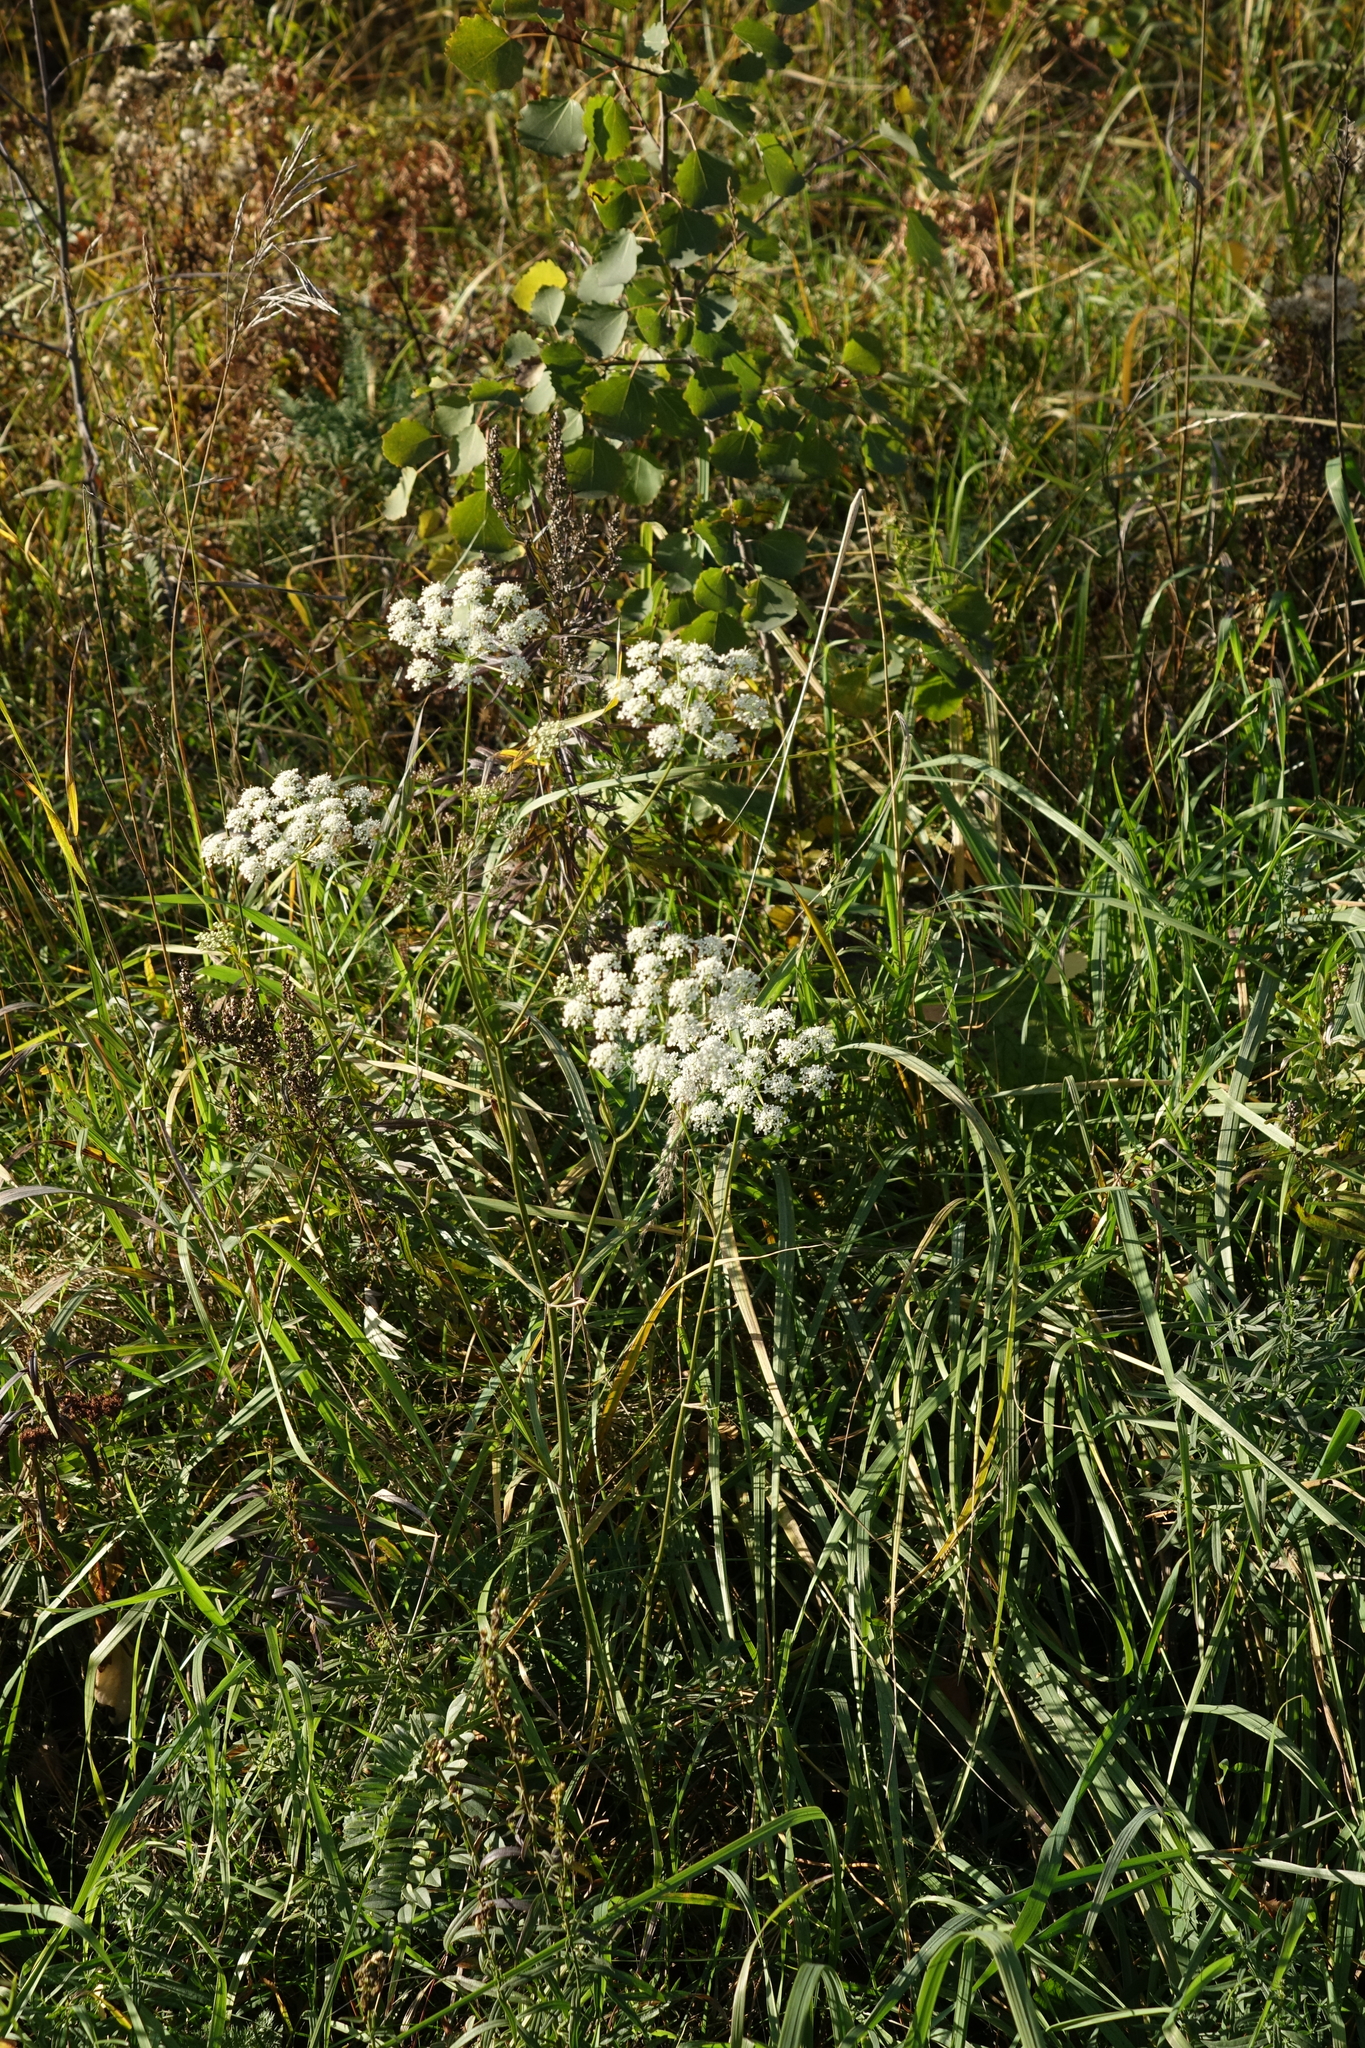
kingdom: Plantae
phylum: Tracheophyta
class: Magnoliopsida
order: Apiales
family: Apiaceae
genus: Pimpinella
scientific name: Pimpinella saxifraga
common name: Burnet-saxifrage
